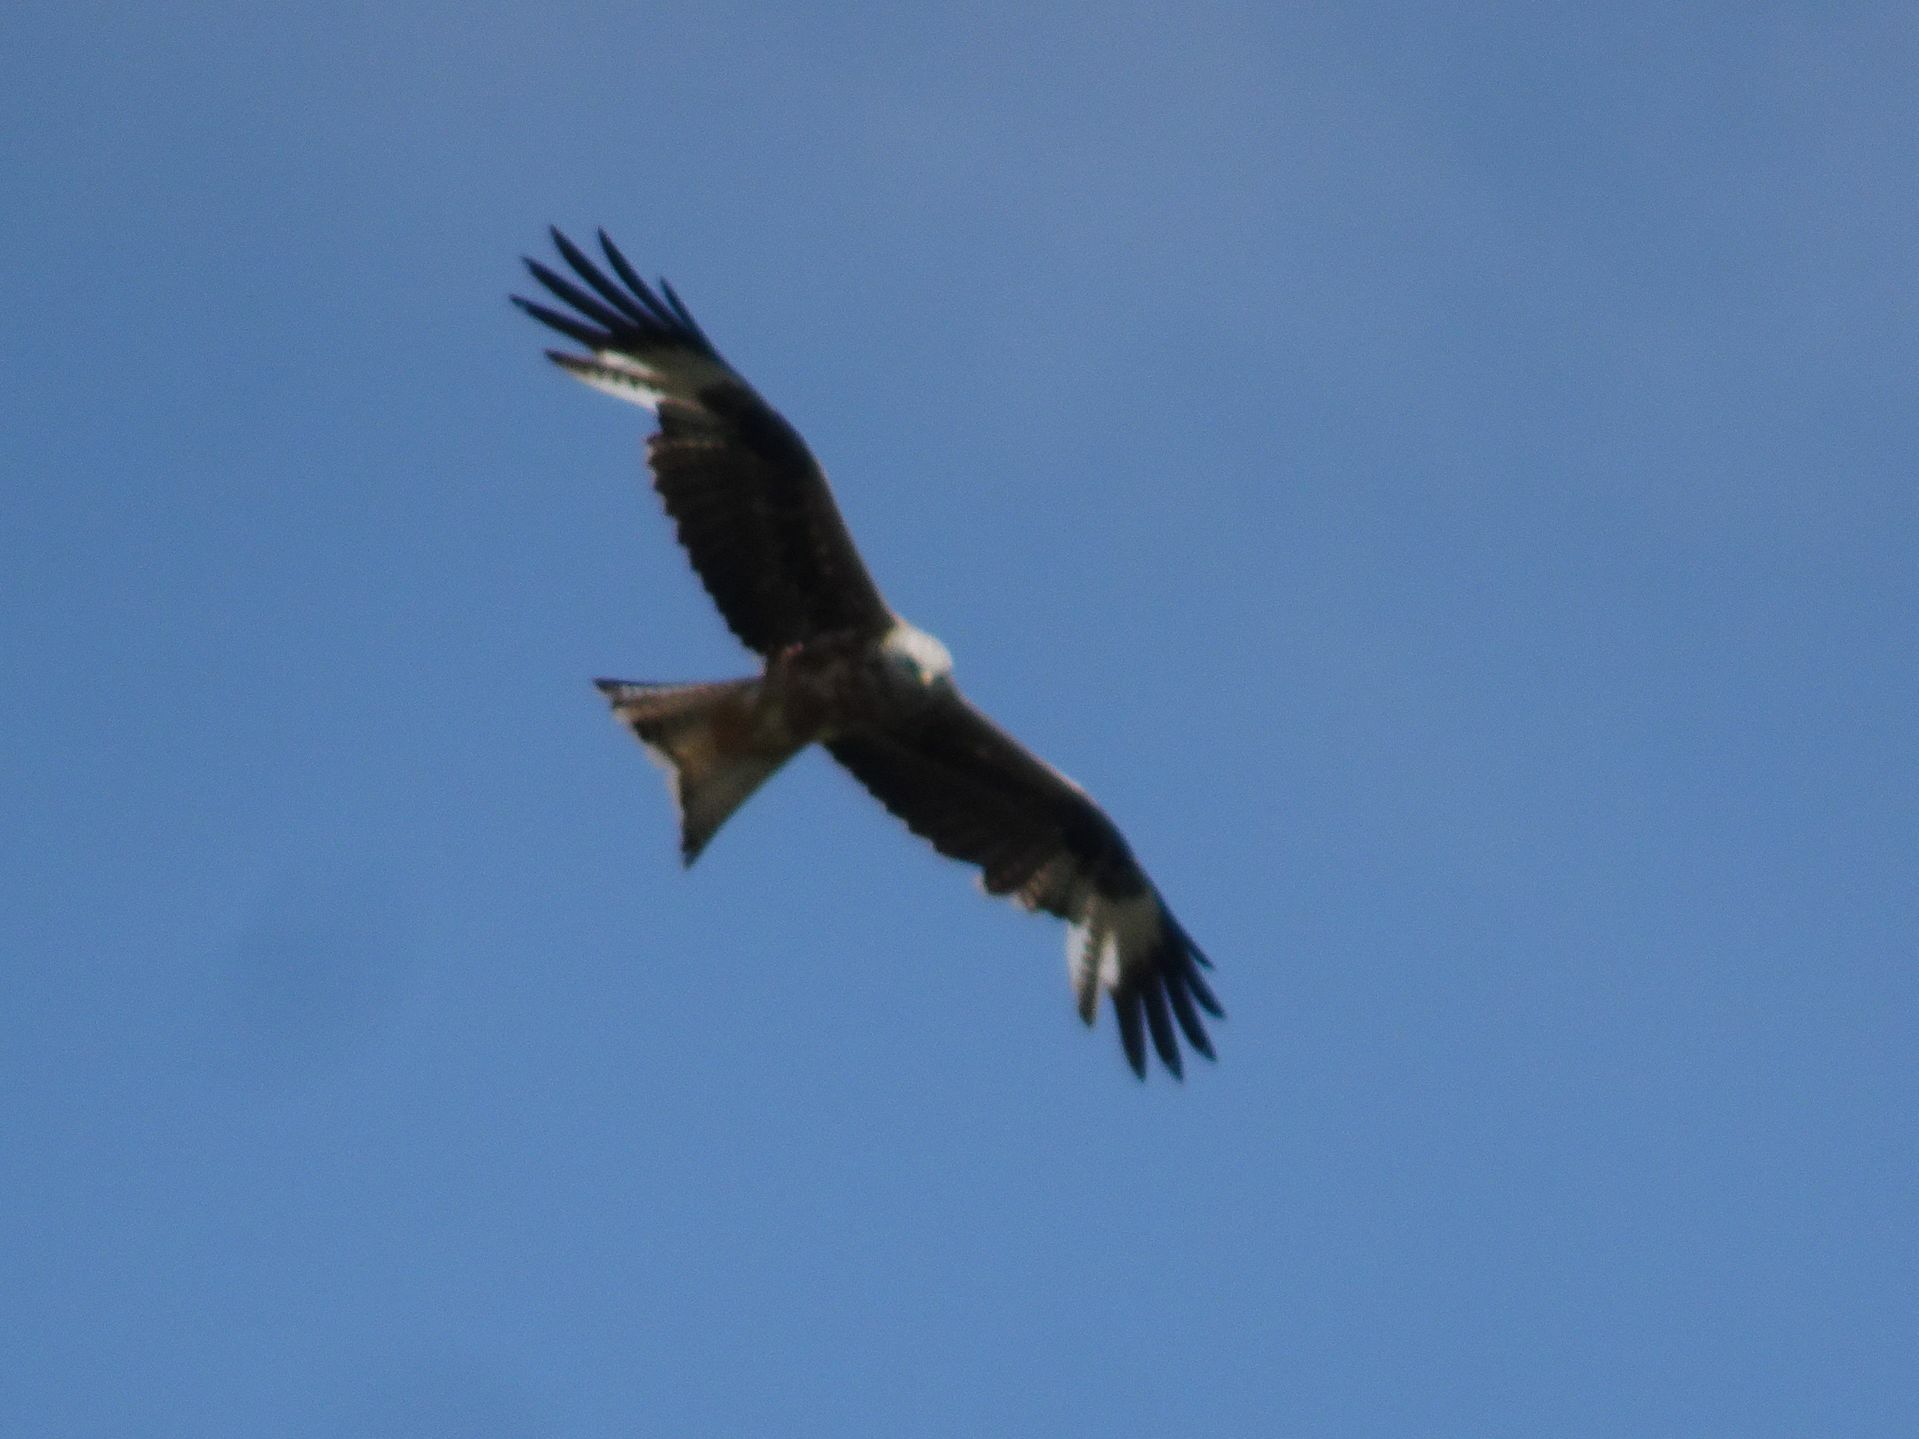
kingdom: Animalia
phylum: Chordata
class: Aves
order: Accipitriformes
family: Accipitridae
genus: Milvus
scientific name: Milvus milvus
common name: Red kite
